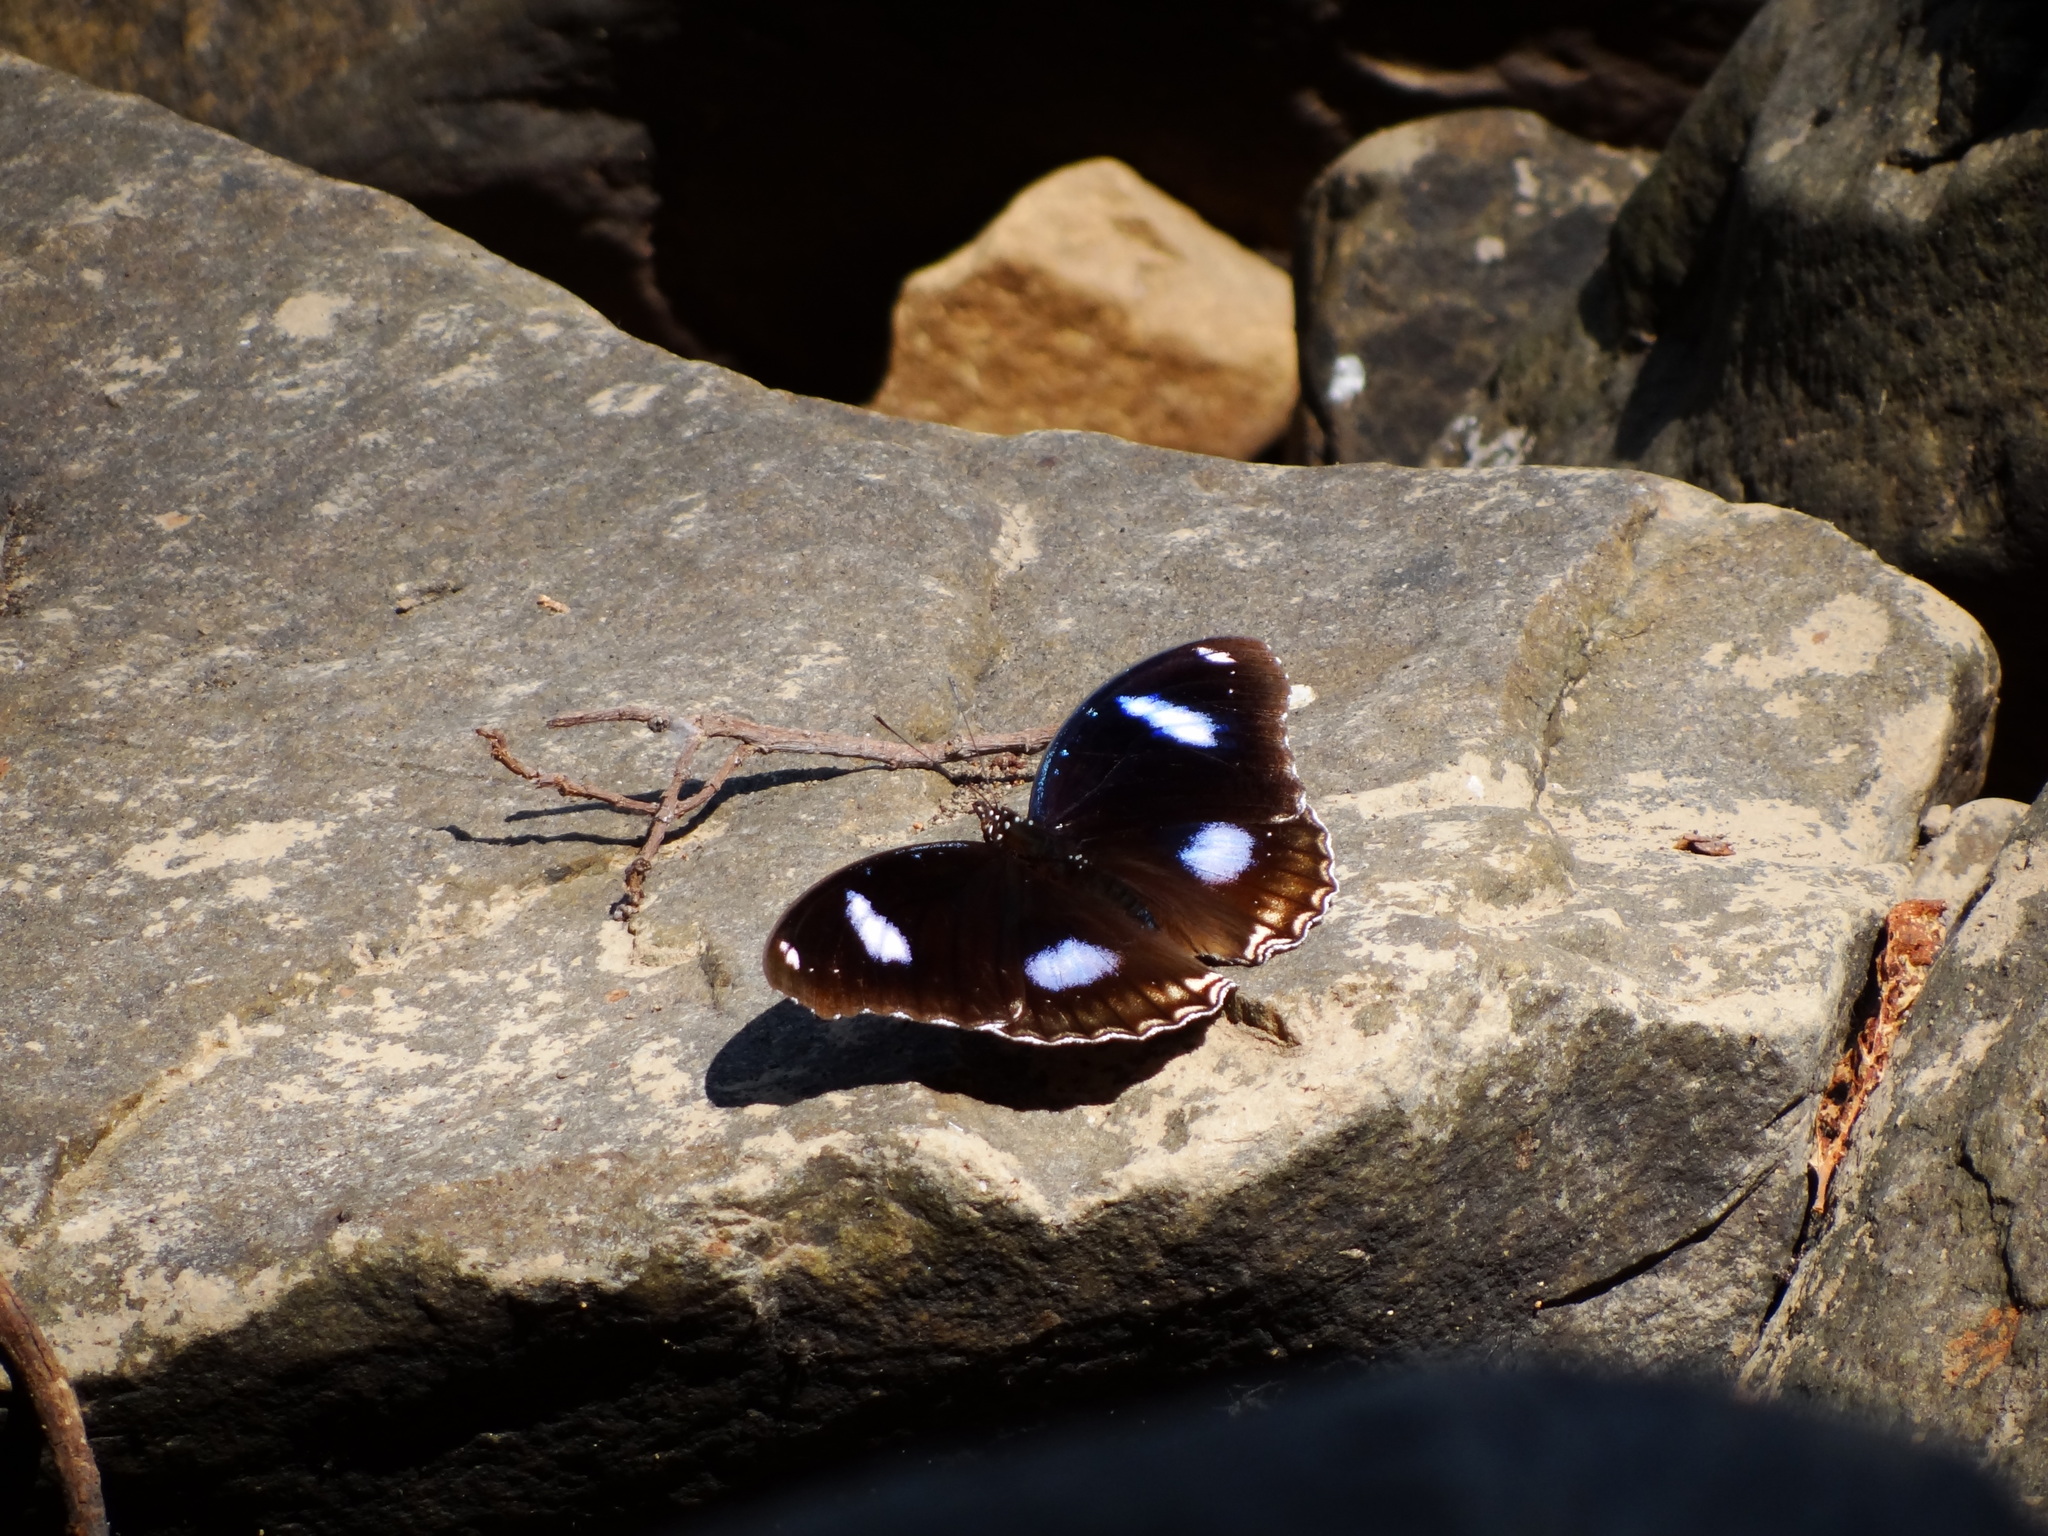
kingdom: Animalia
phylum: Arthropoda
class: Insecta
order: Lepidoptera
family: Nymphalidae
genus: Hypolimnas
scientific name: Hypolimnas bolina
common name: Great eggfly
